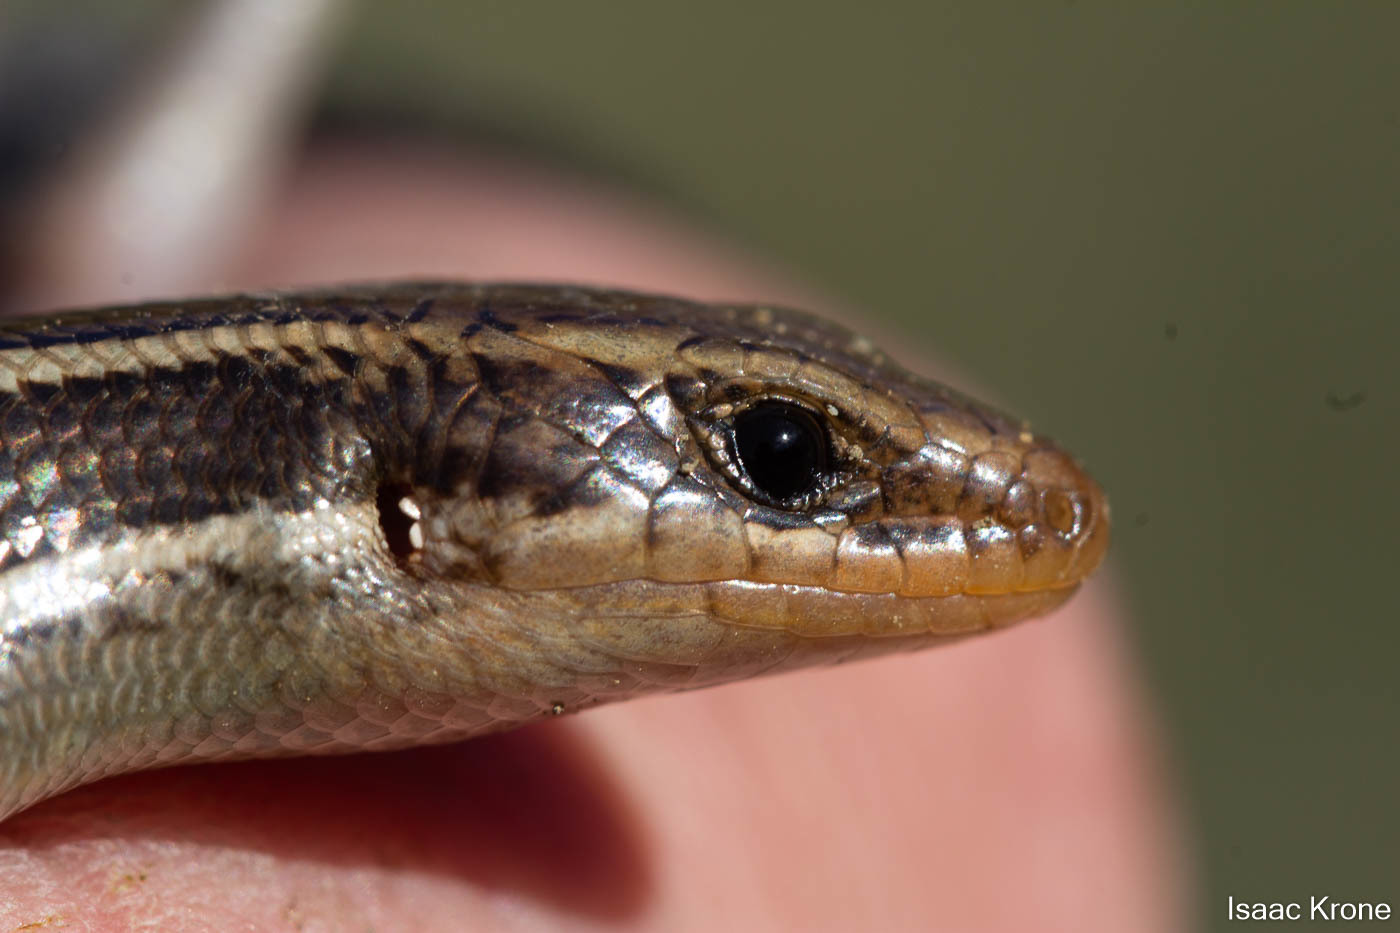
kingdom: Animalia
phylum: Chordata
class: Squamata
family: Scincidae
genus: Plestiodon
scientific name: Plestiodon skiltonianus
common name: Coronado island skink [interparietalis]
